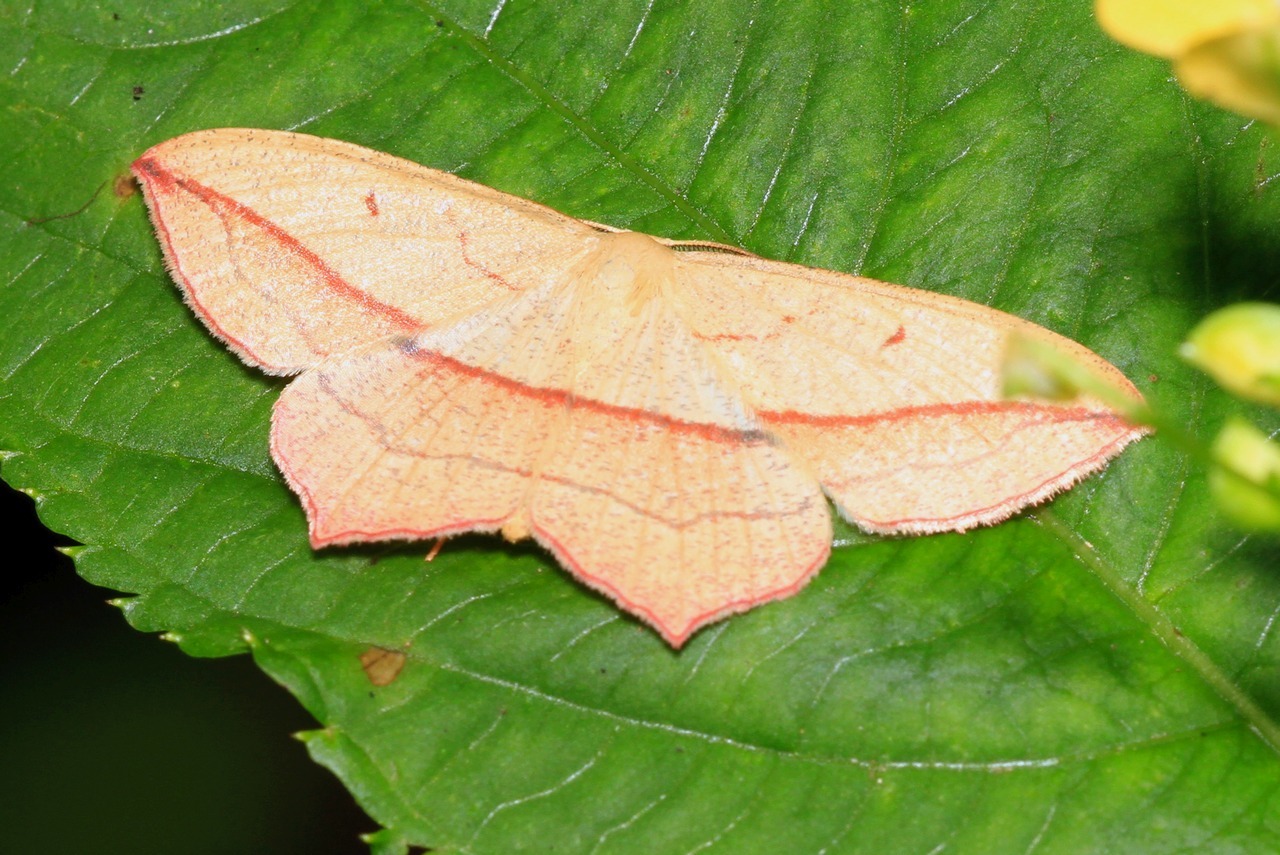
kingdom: Animalia
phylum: Arthropoda
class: Insecta
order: Lepidoptera
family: Geometridae
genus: Timandra
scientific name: Timandra comae
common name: Blood-vein
